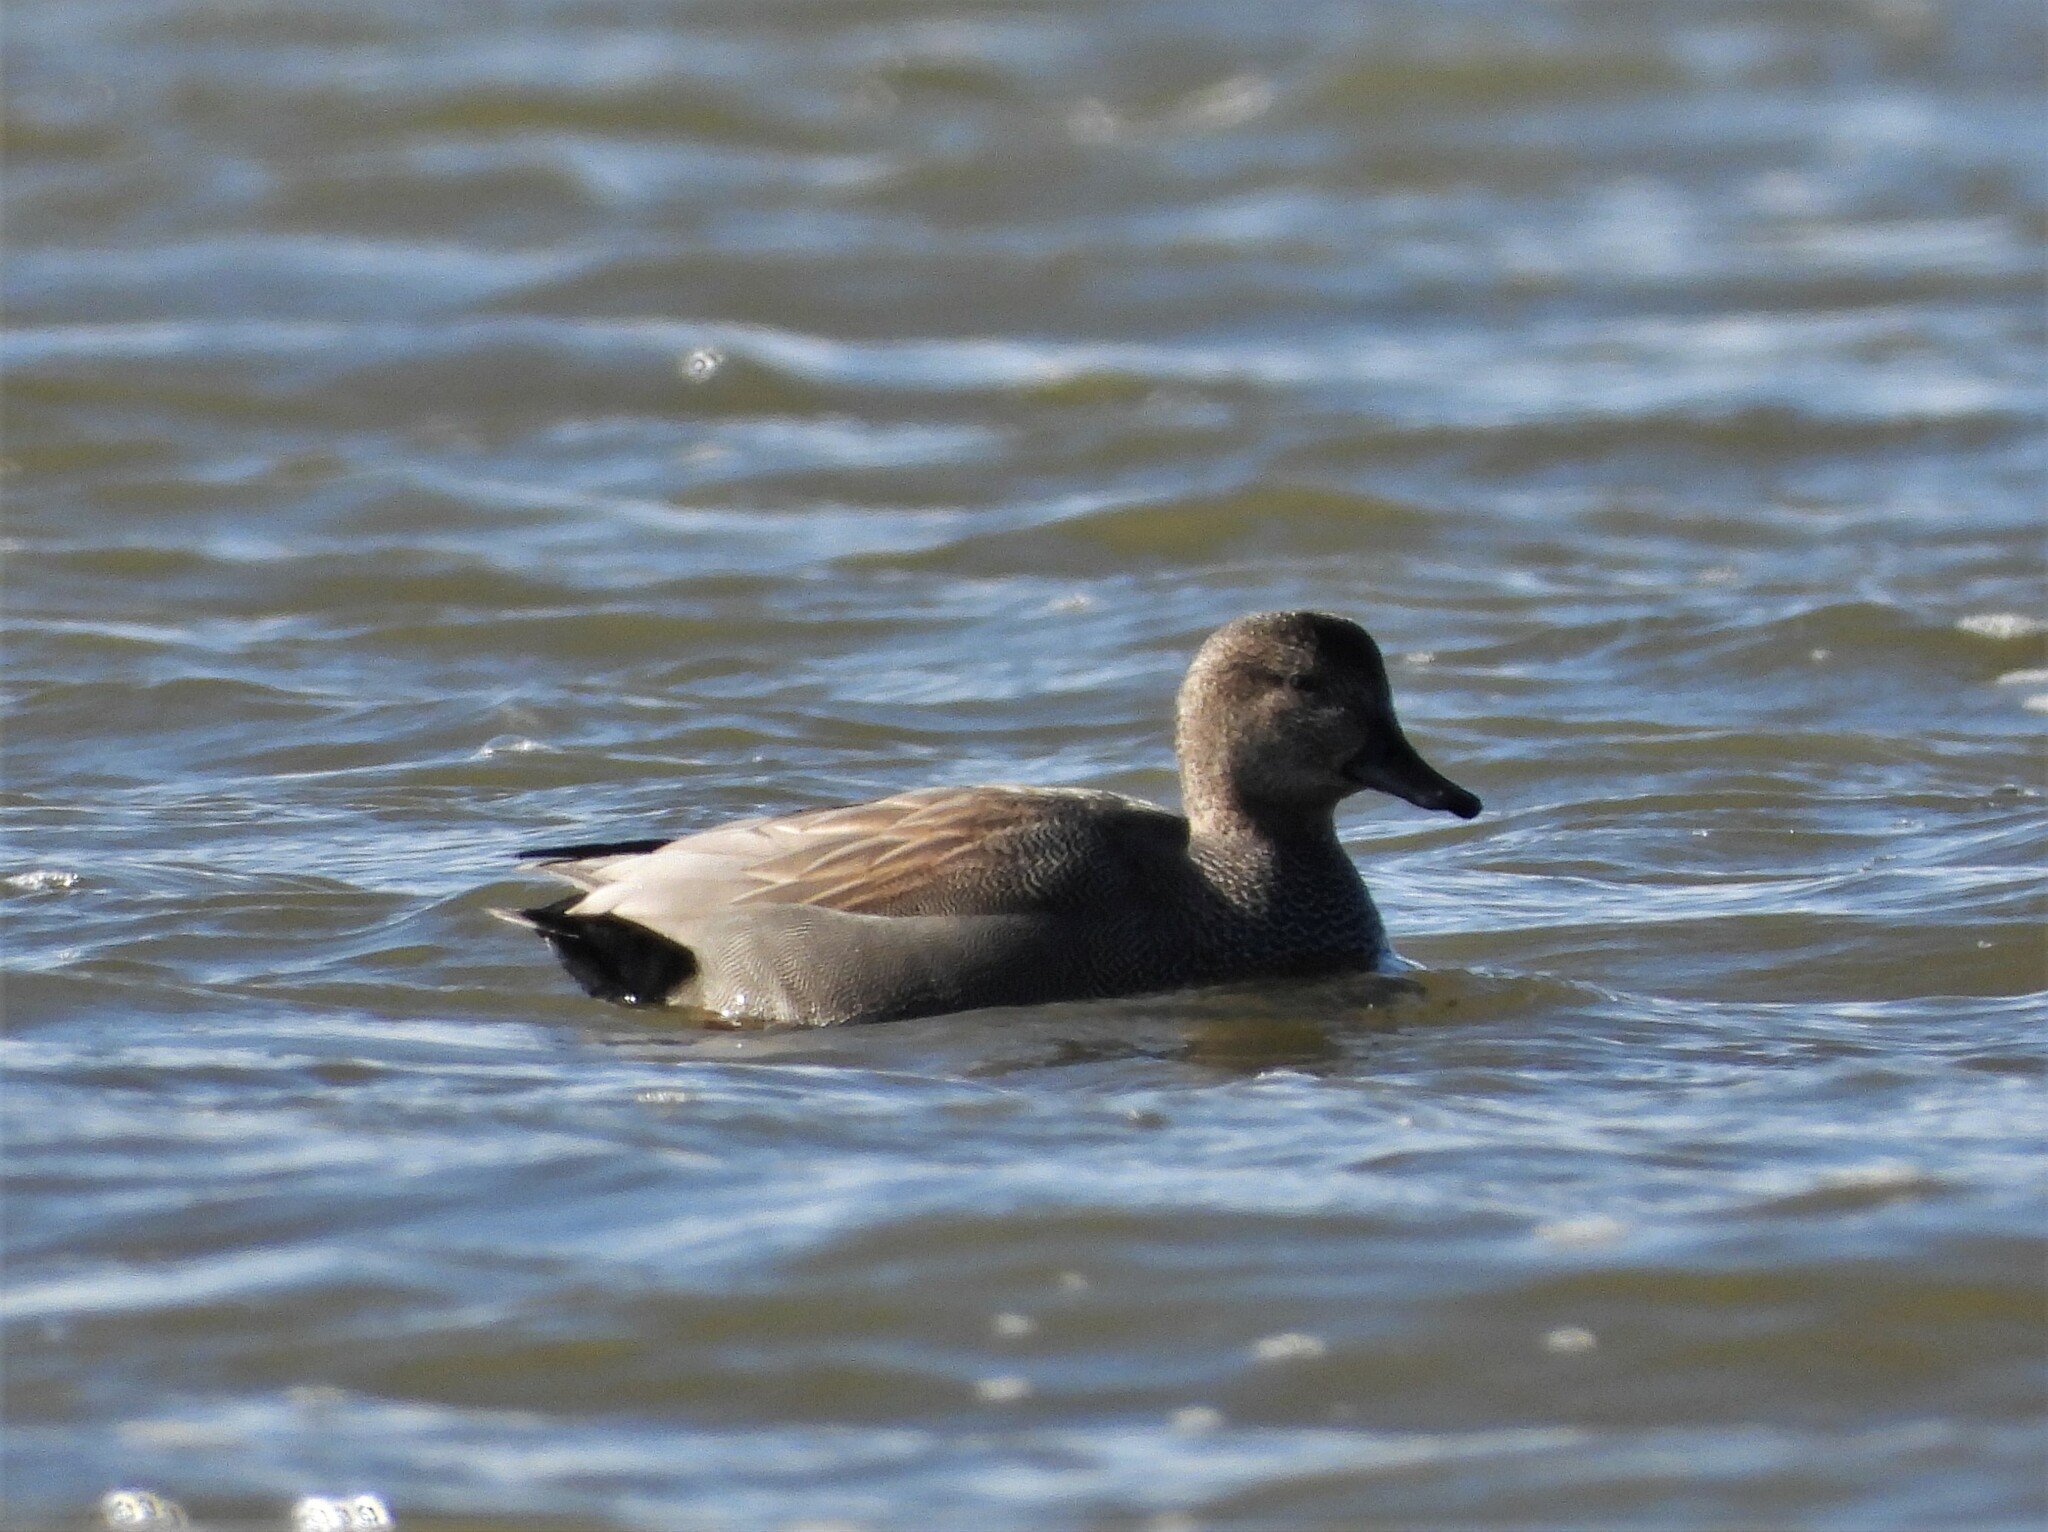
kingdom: Animalia
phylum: Chordata
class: Aves
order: Anseriformes
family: Anatidae
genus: Mareca
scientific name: Mareca strepera
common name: Gadwall
